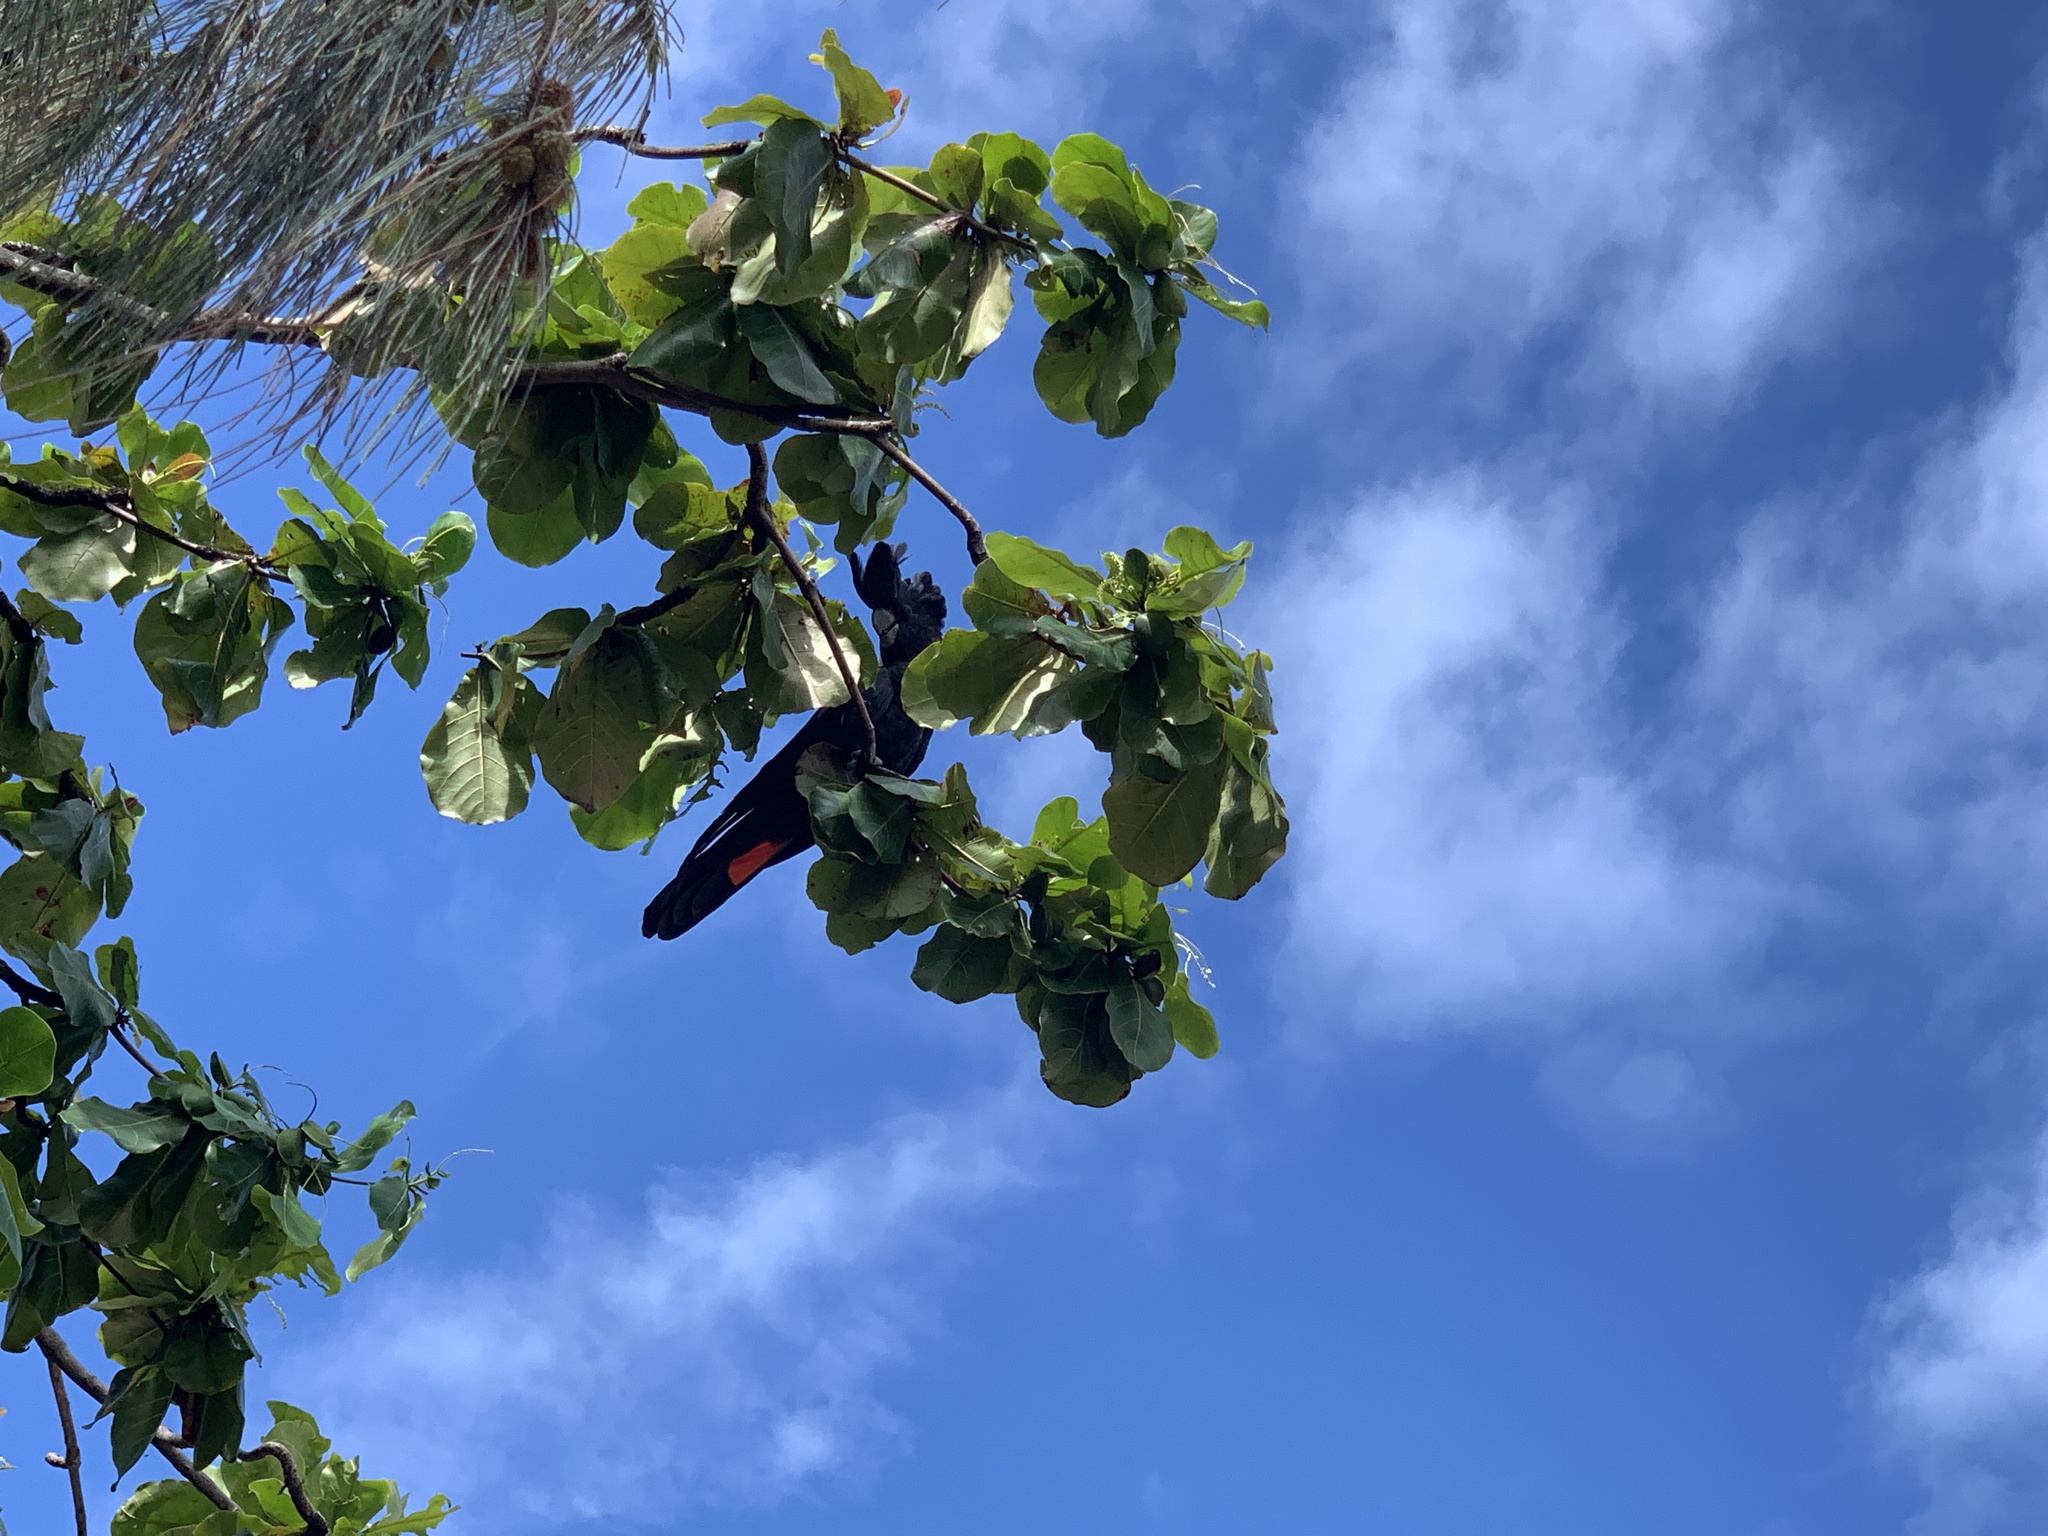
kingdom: Animalia
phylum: Chordata
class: Aves
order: Psittaciformes
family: Psittacidae
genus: Calyptorhynchus
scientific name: Calyptorhynchus banksii
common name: Red-tailed black cockatoo
